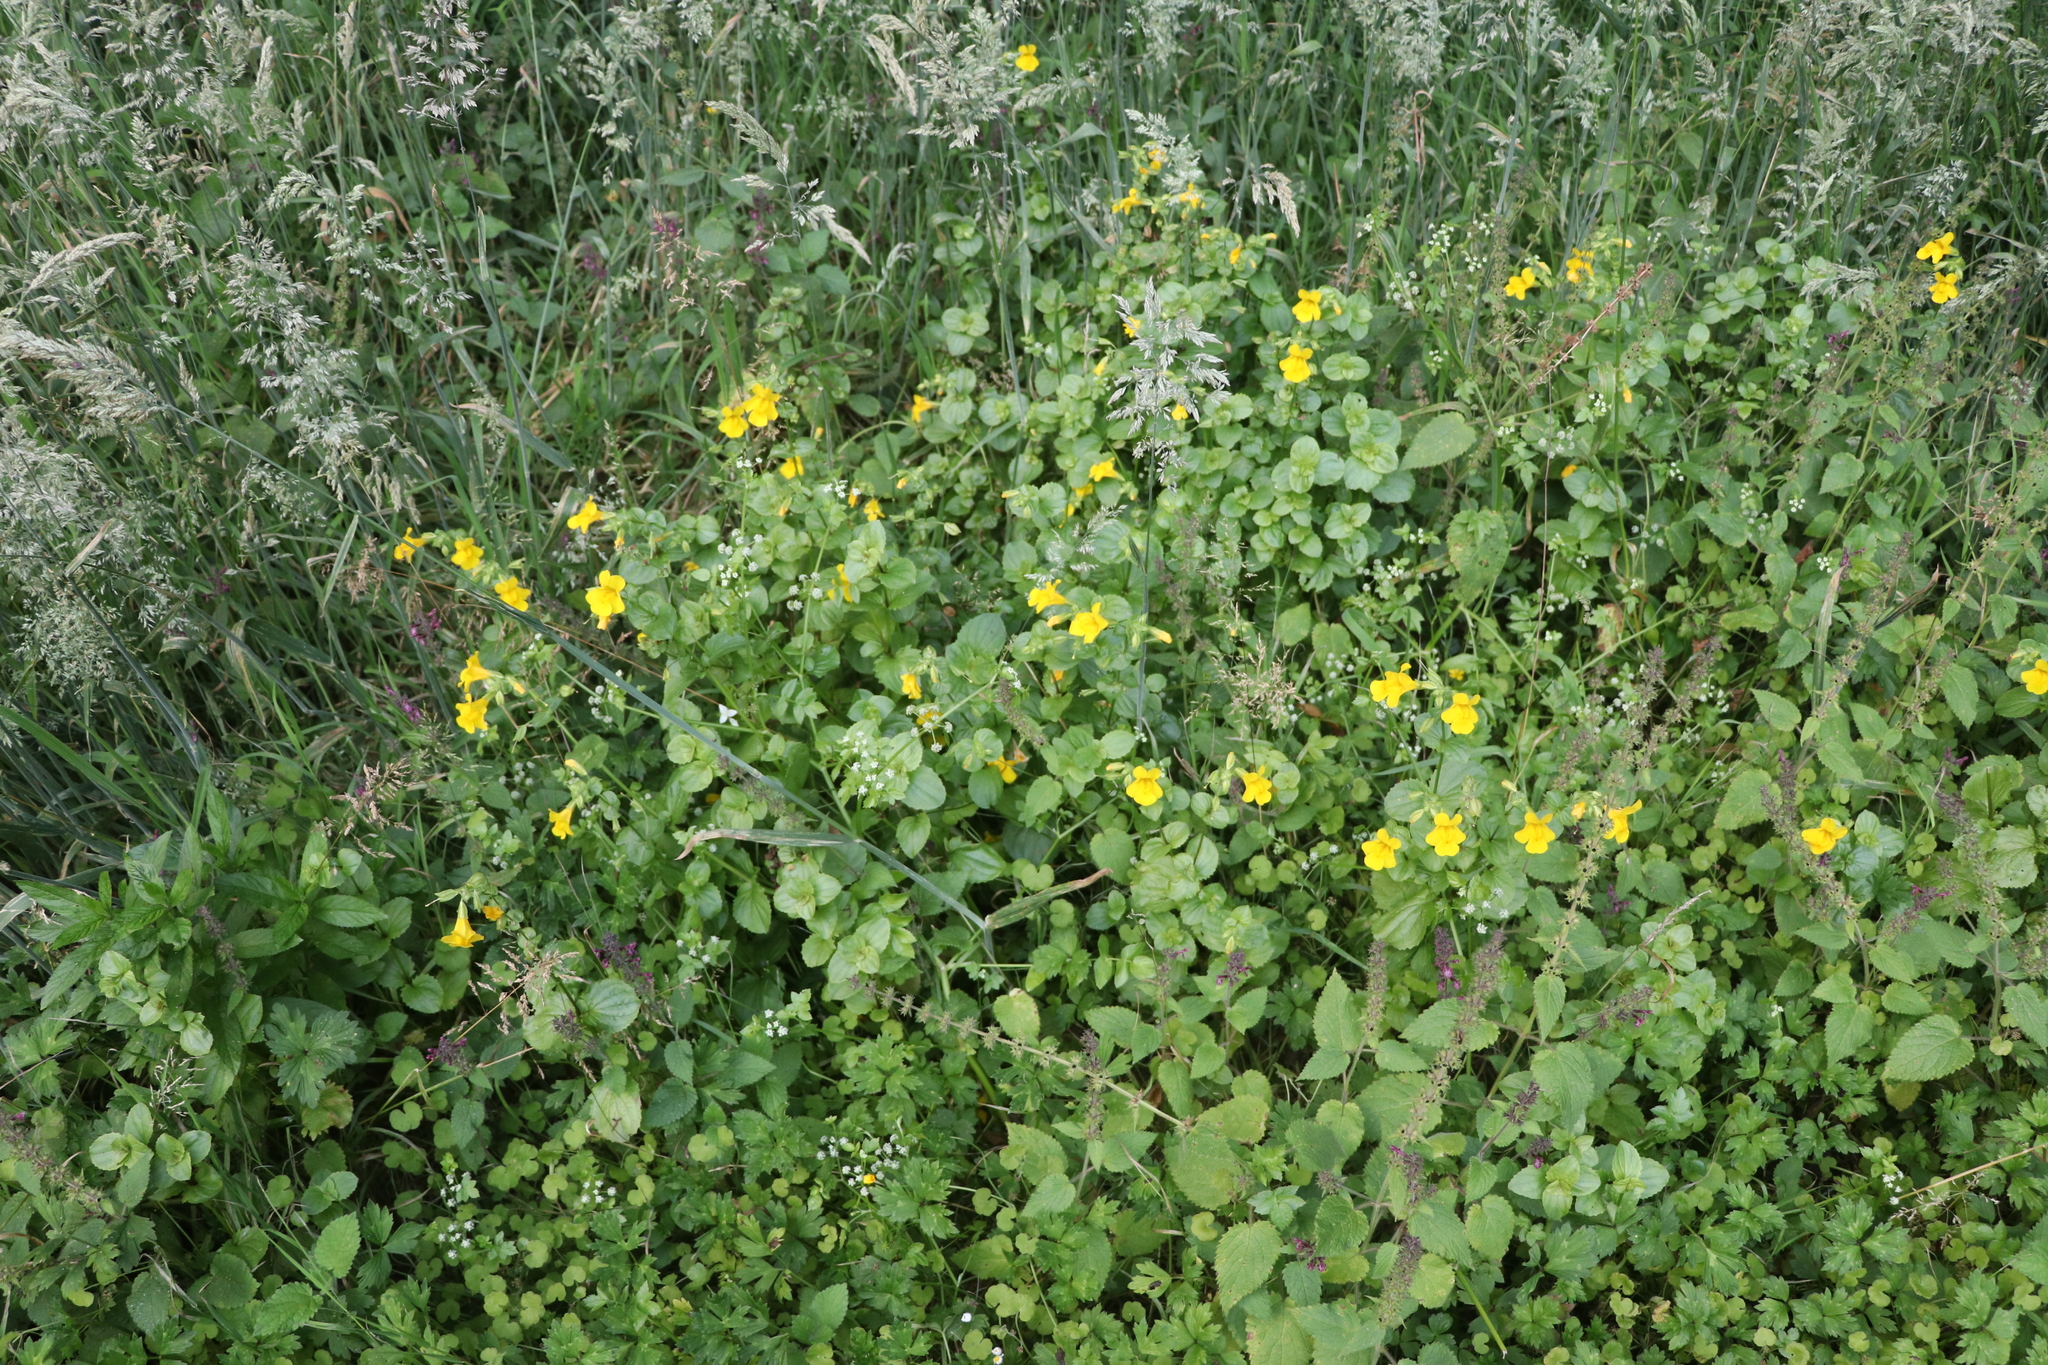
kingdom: Plantae
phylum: Tracheophyta
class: Magnoliopsida
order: Lamiales
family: Phrymaceae
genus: Erythranthe
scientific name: Erythranthe guttata
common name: Monkeyflower
